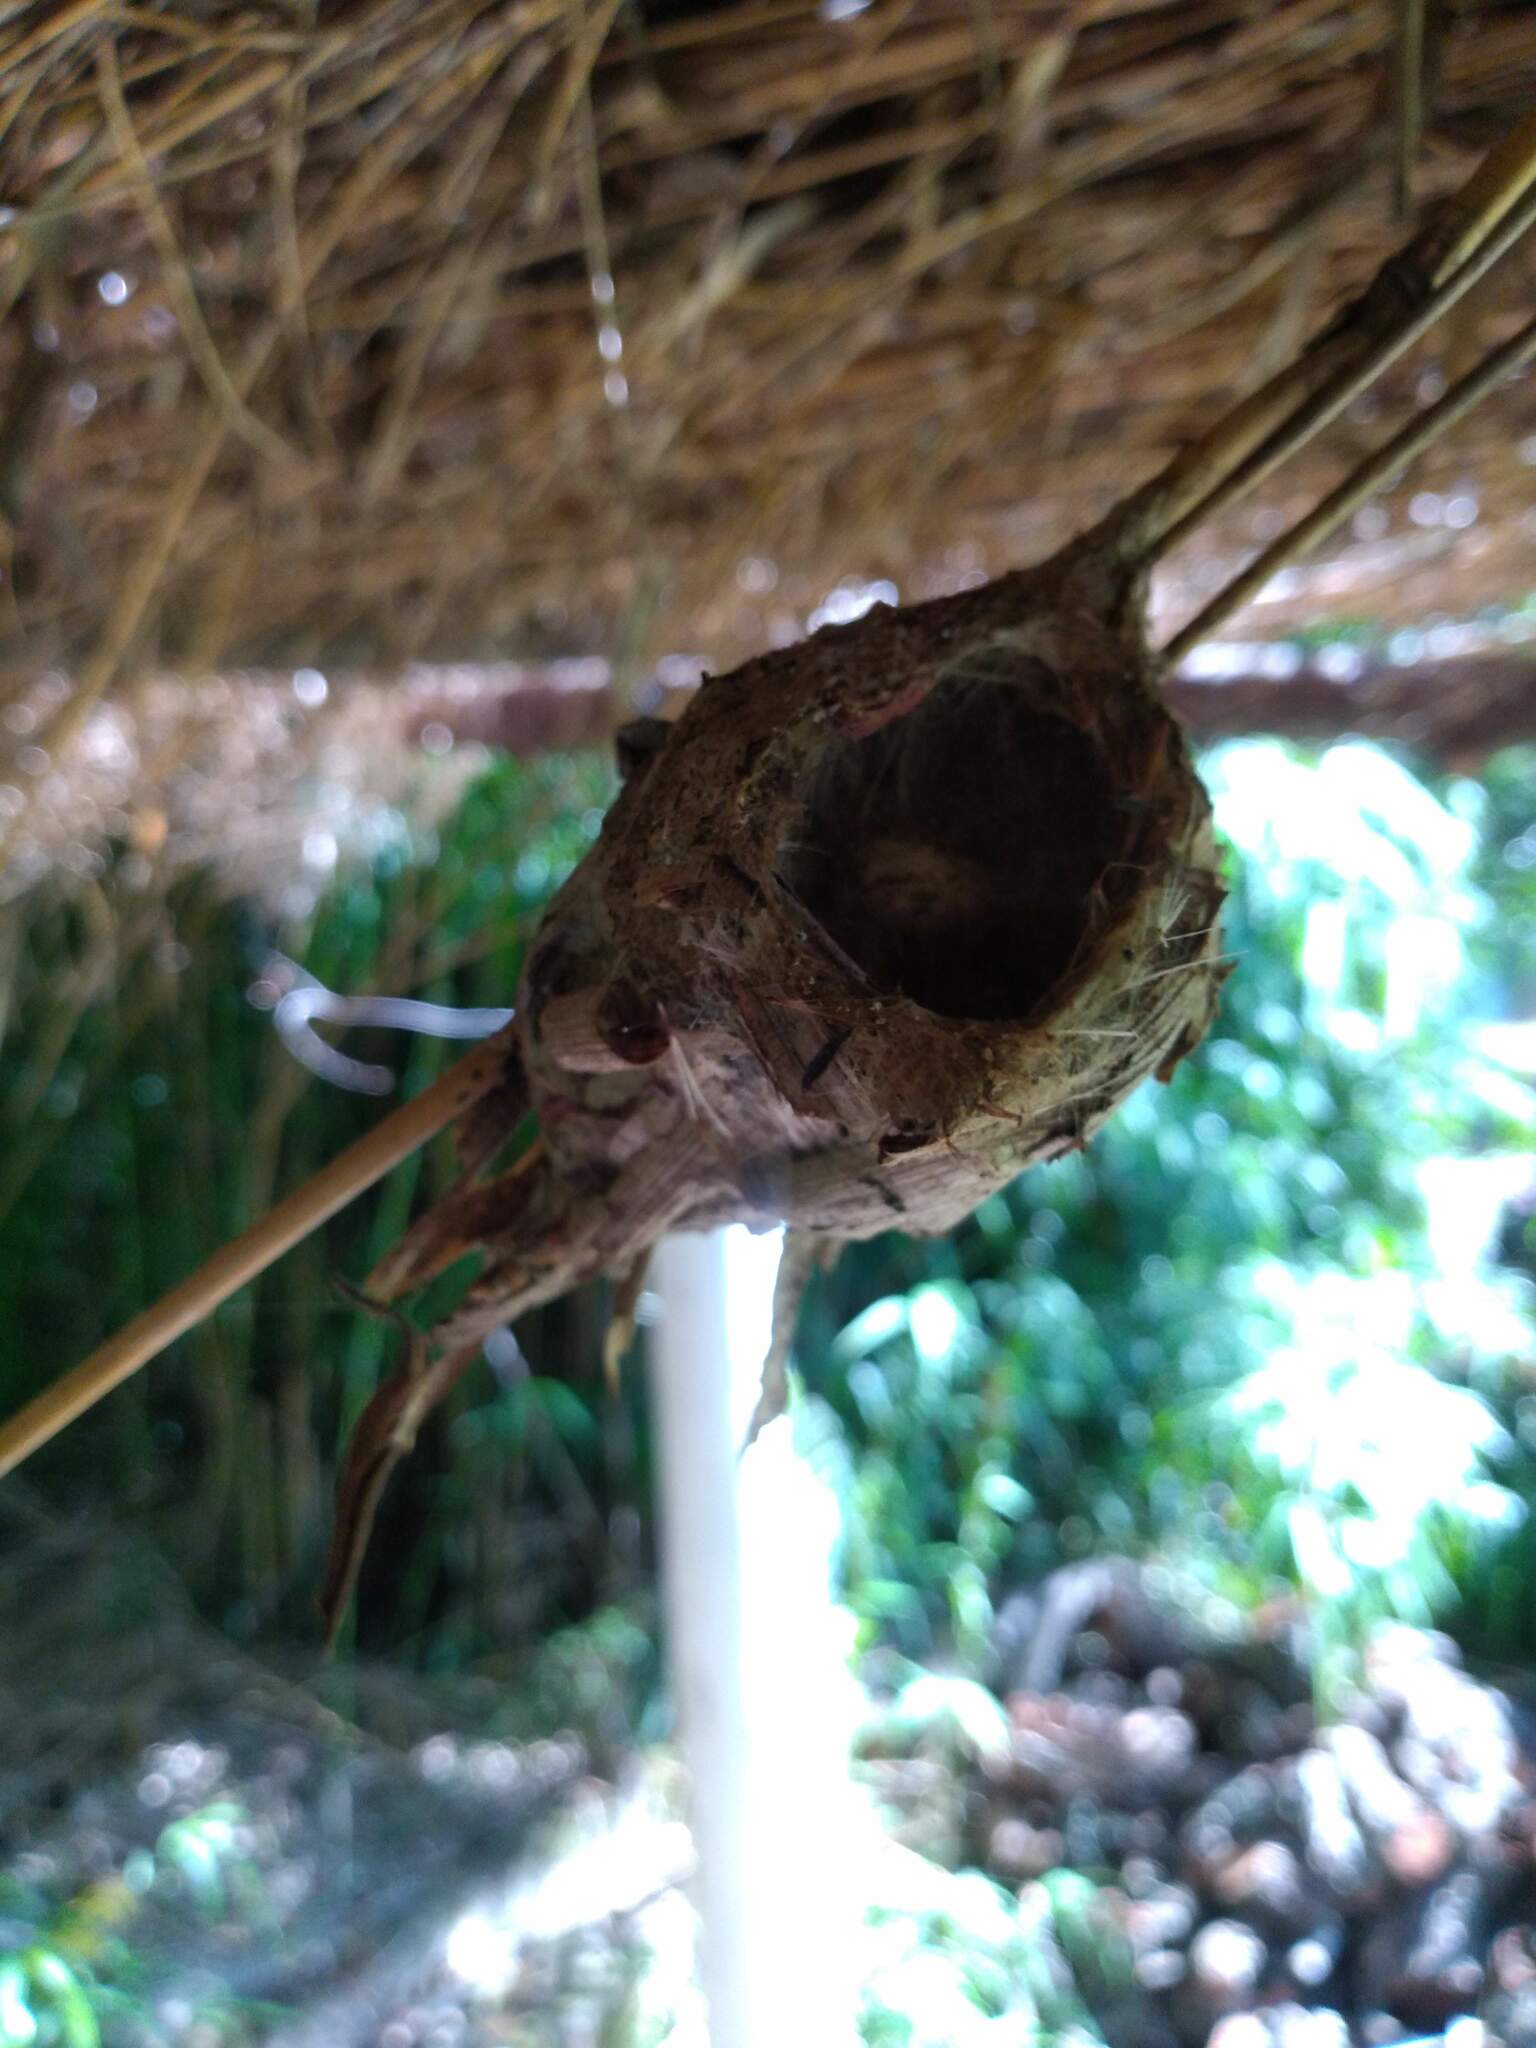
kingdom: Animalia
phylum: Chordata
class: Aves
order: Apodiformes
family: Trochilidae
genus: Chlorostilbon
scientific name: Chlorostilbon lucidus
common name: Glittering-bellied emerald
